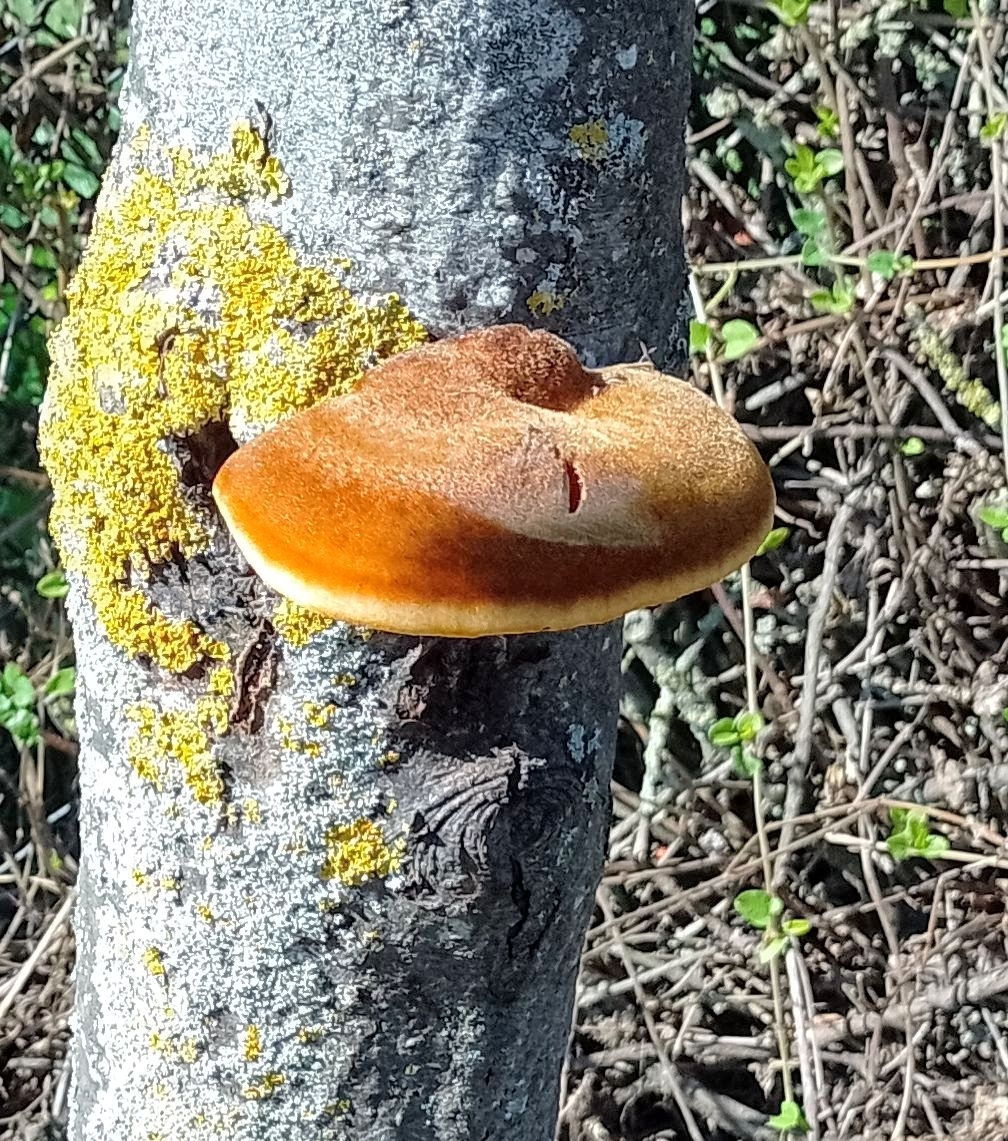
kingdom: Fungi
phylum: Basidiomycota
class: Agaricomycetes
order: Hymenochaetales
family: Hymenochaetaceae
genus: Inonotus
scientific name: Inonotus hispidus
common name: Shaggy bracket
